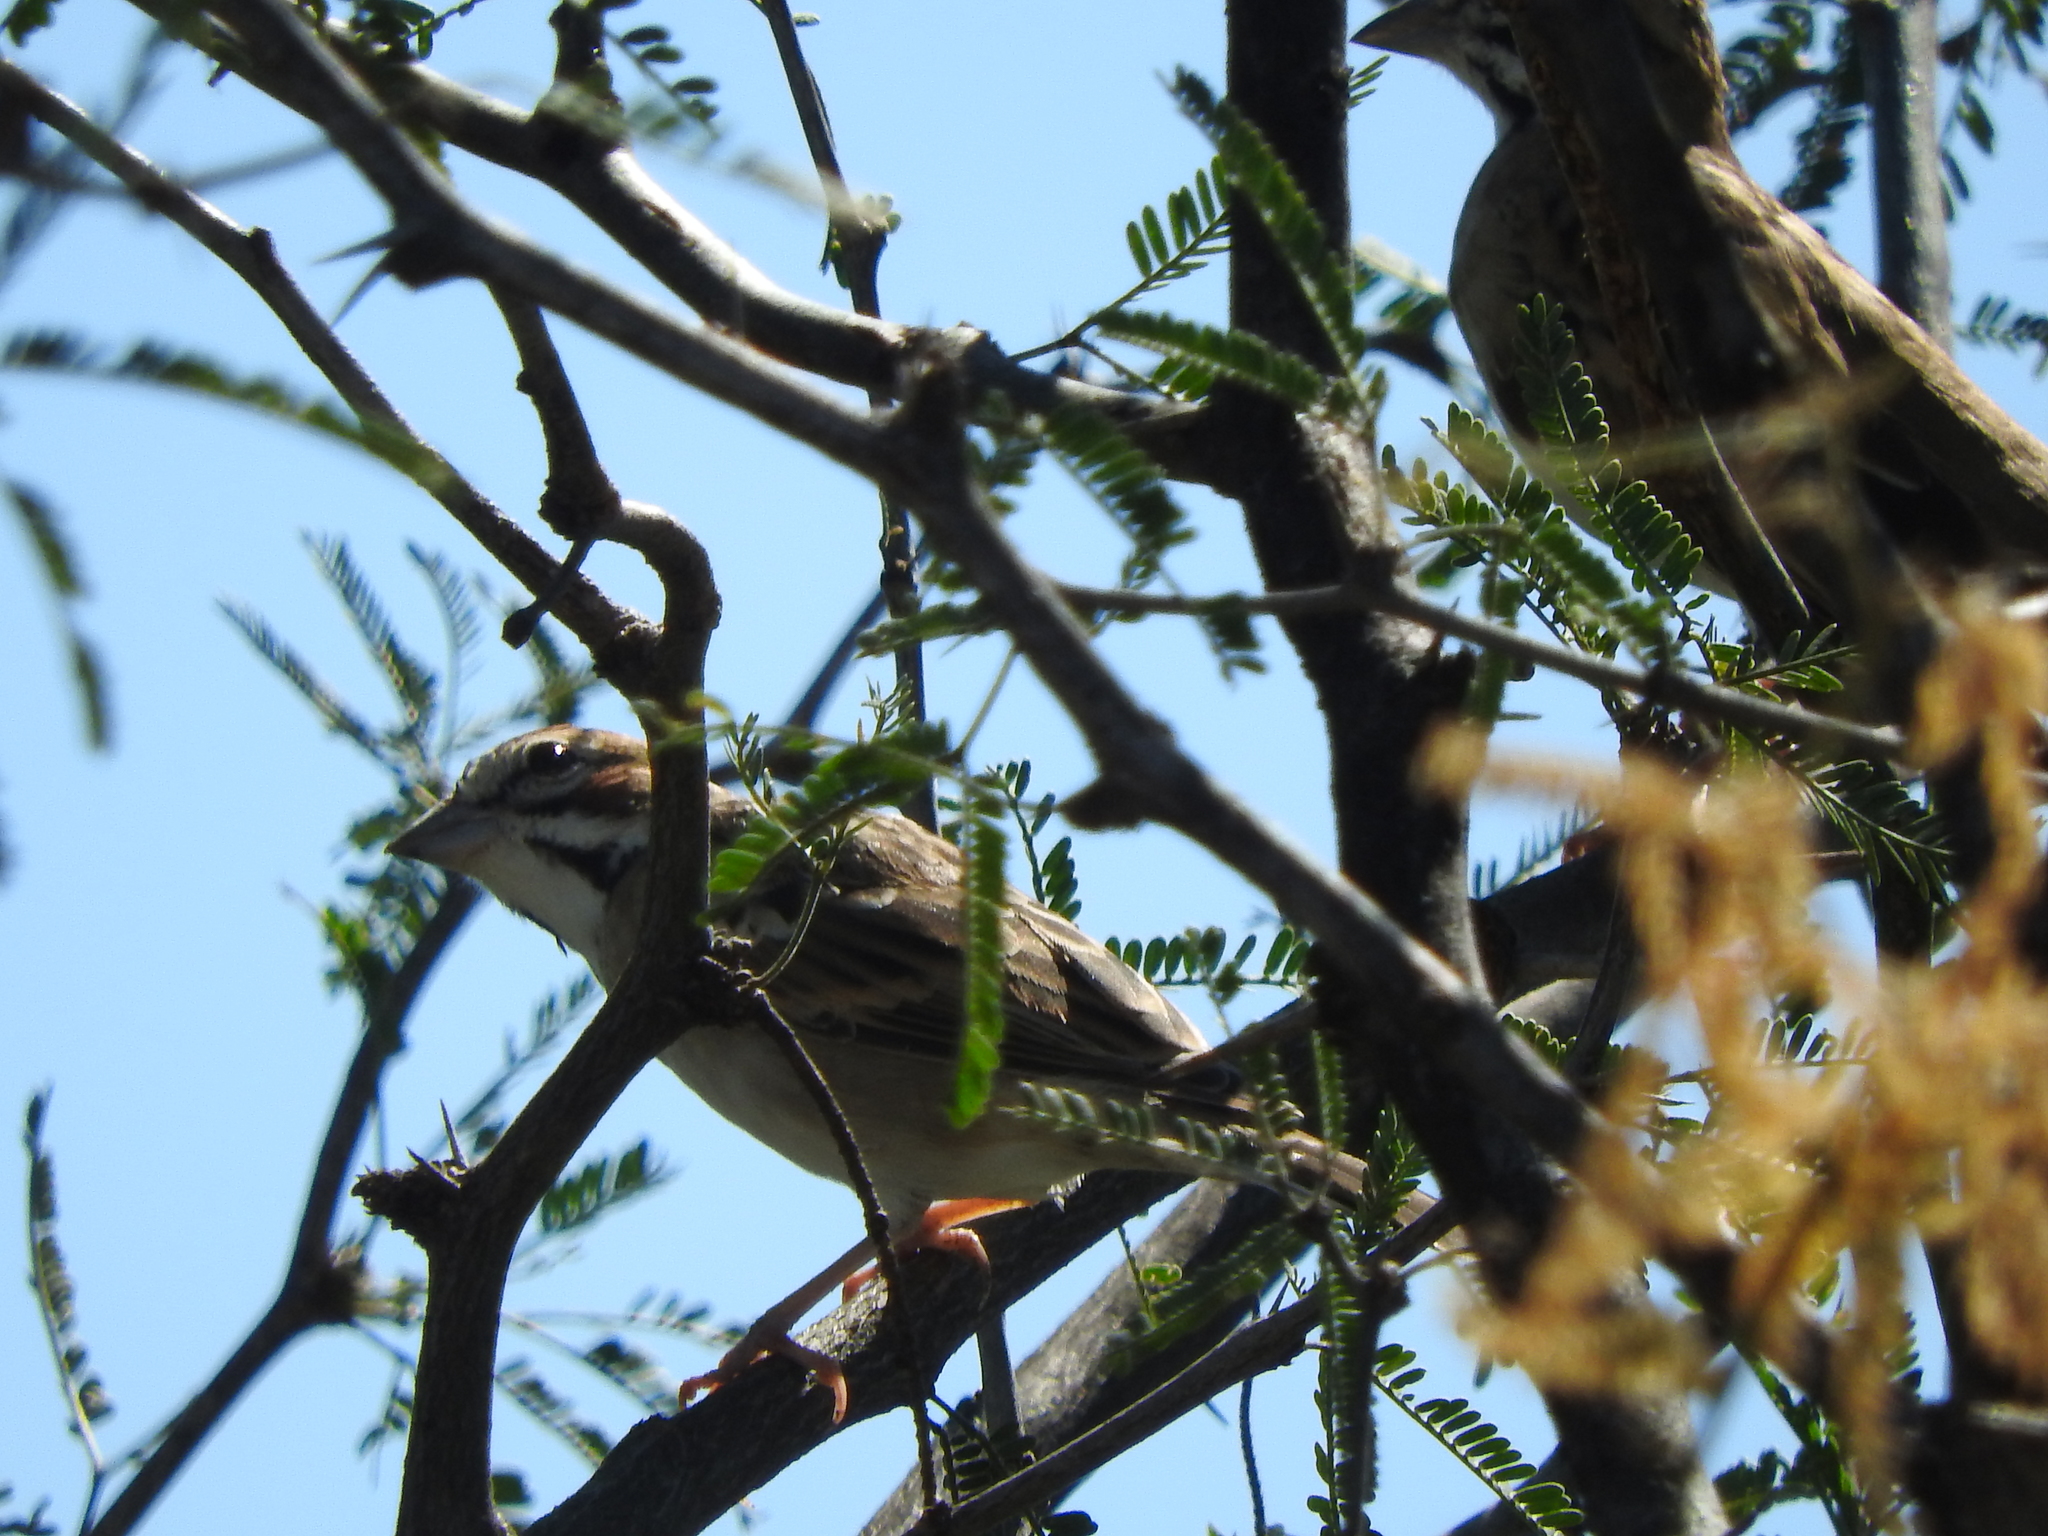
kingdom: Animalia
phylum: Chordata
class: Aves
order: Passeriformes
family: Passerellidae
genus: Chondestes
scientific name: Chondestes grammacus
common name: Lark sparrow
